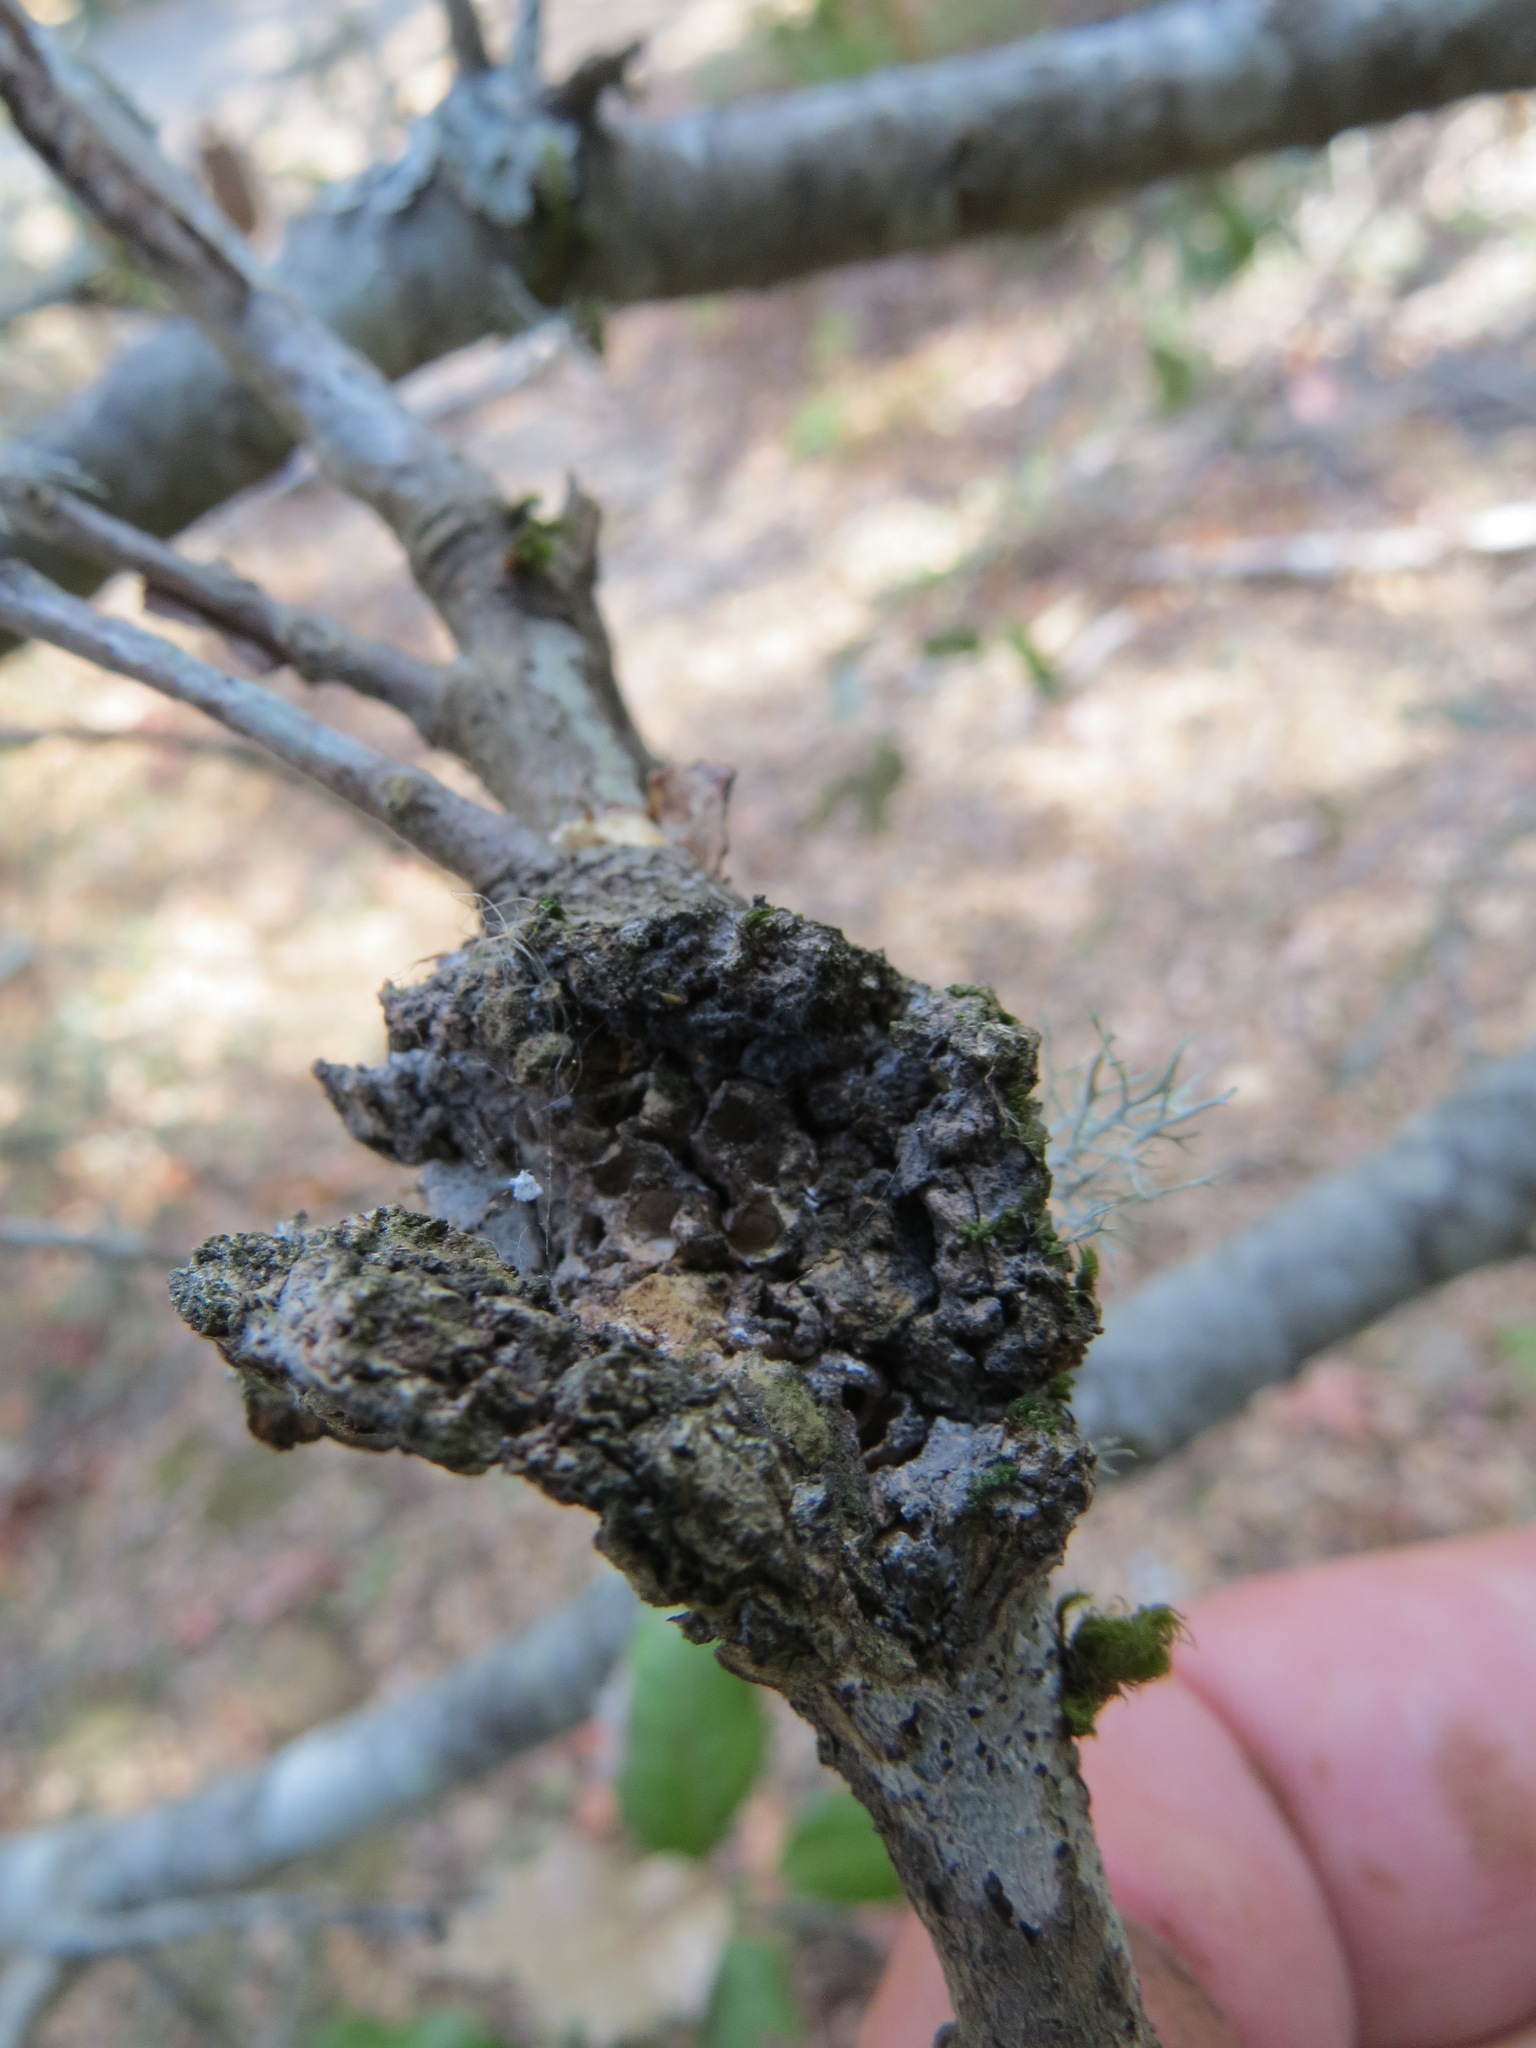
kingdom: Animalia
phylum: Arthropoda
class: Insecta
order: Hymenoptera
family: Cynipidae
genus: Dryocosmus
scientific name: Dryocosmus
